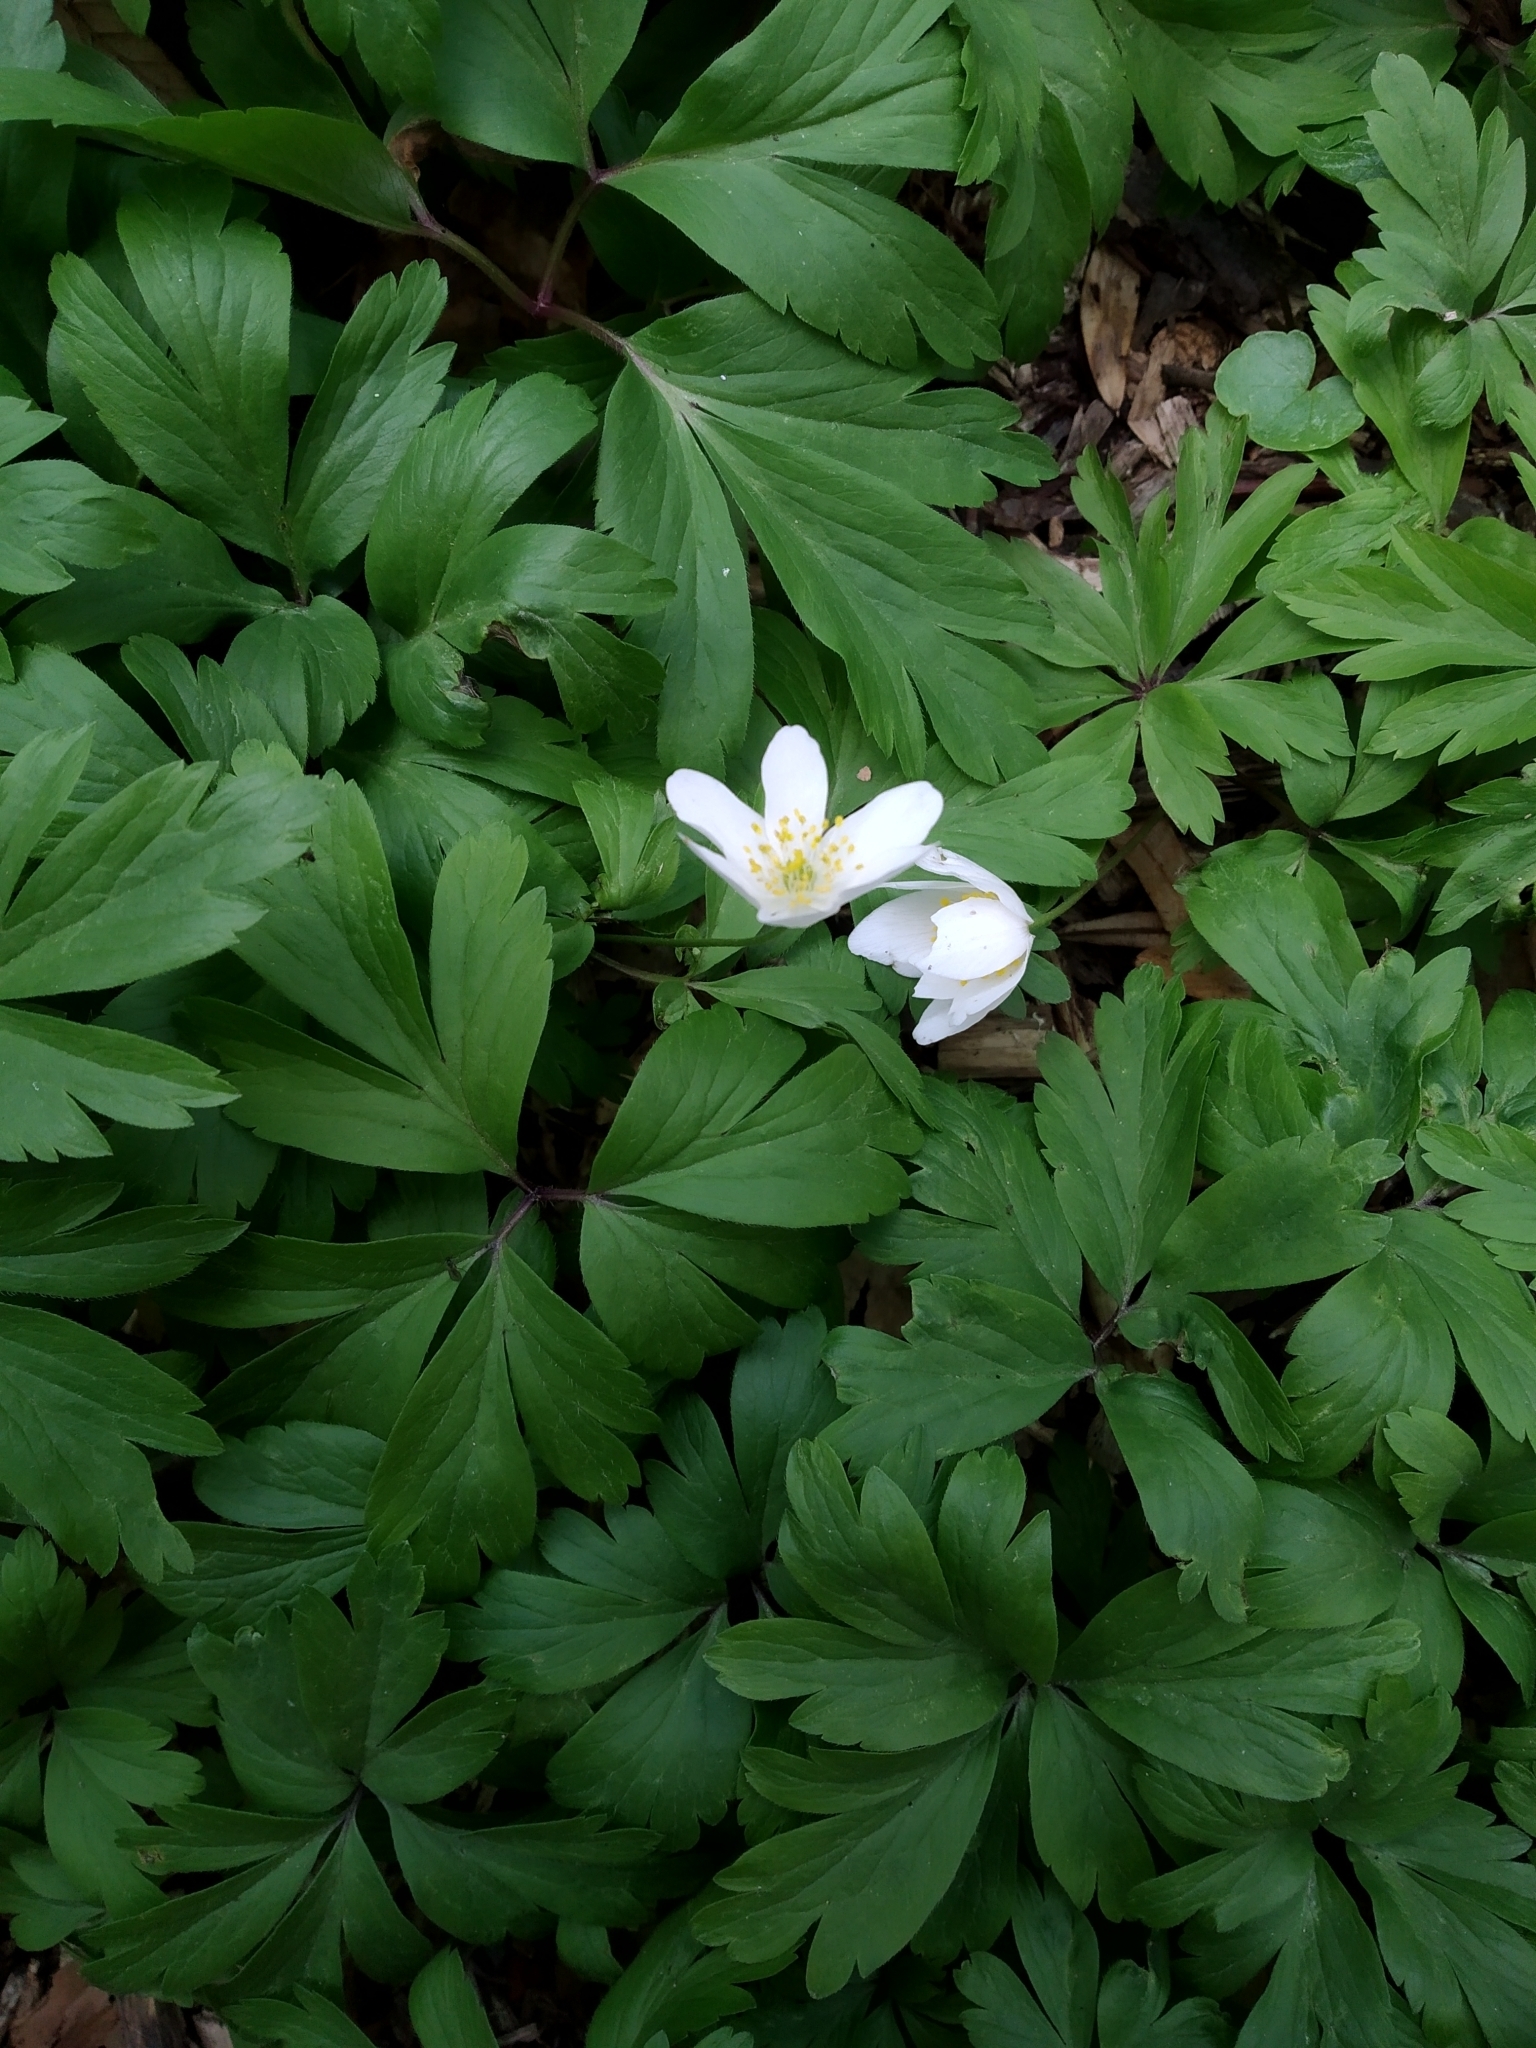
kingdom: Plantae
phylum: Tracheophyta
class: Magnoliopsida
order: Ranunculales
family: Ranunculaceae
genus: Anemone
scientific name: Anemone nemorosa
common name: Wood anemone
